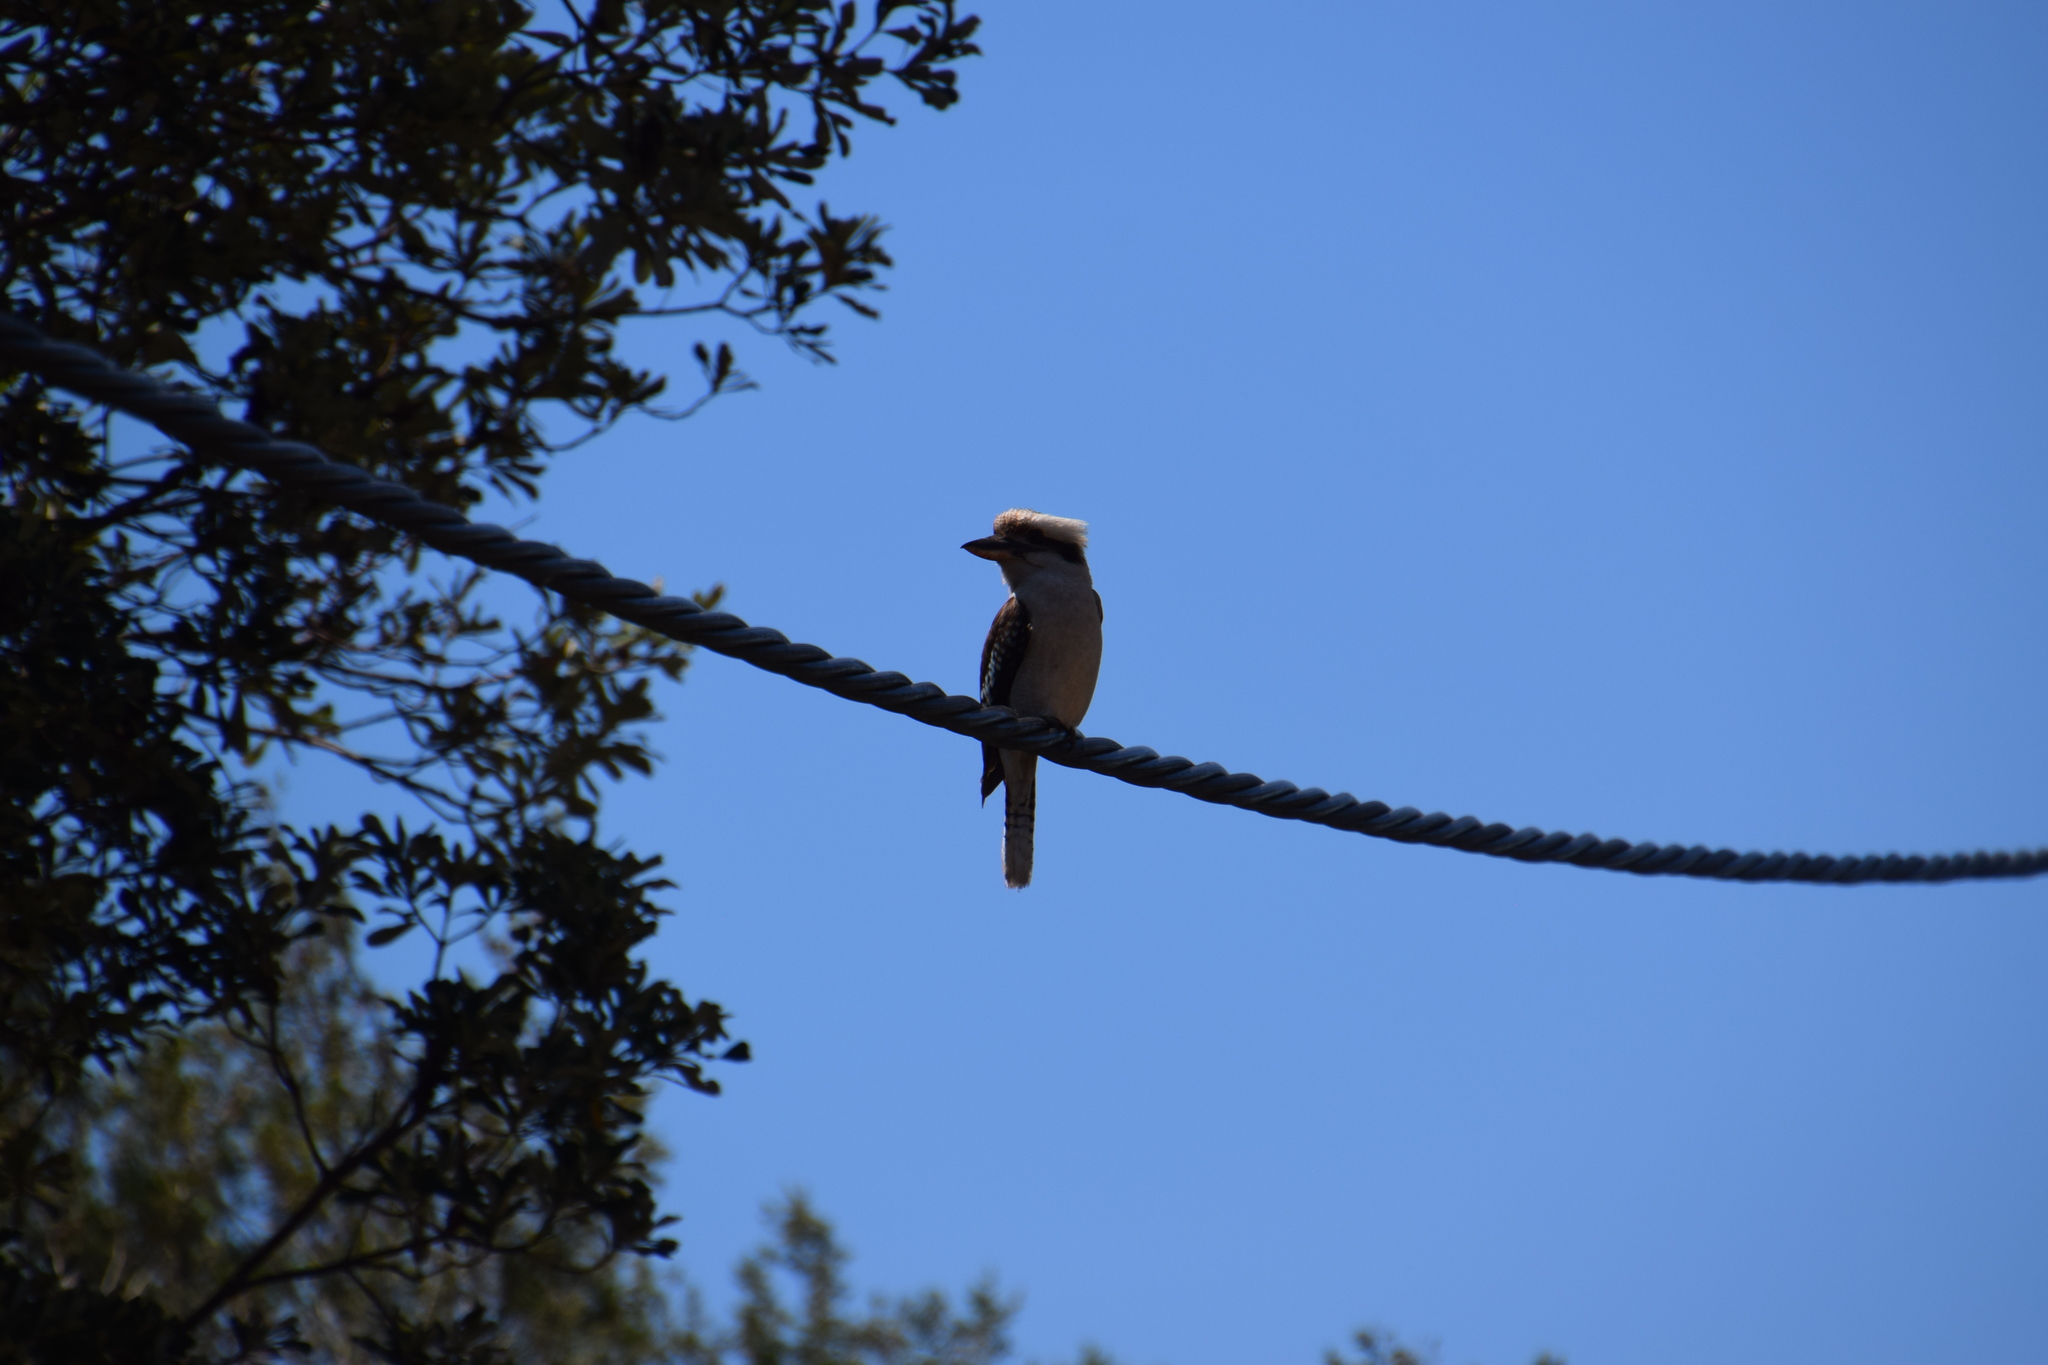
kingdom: Animalia
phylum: Chordata
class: Aves
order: Coraciiformes
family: Alcedinidae
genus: Dacelo
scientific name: Dacelo novaeguineae
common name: Laughing kookaburra
